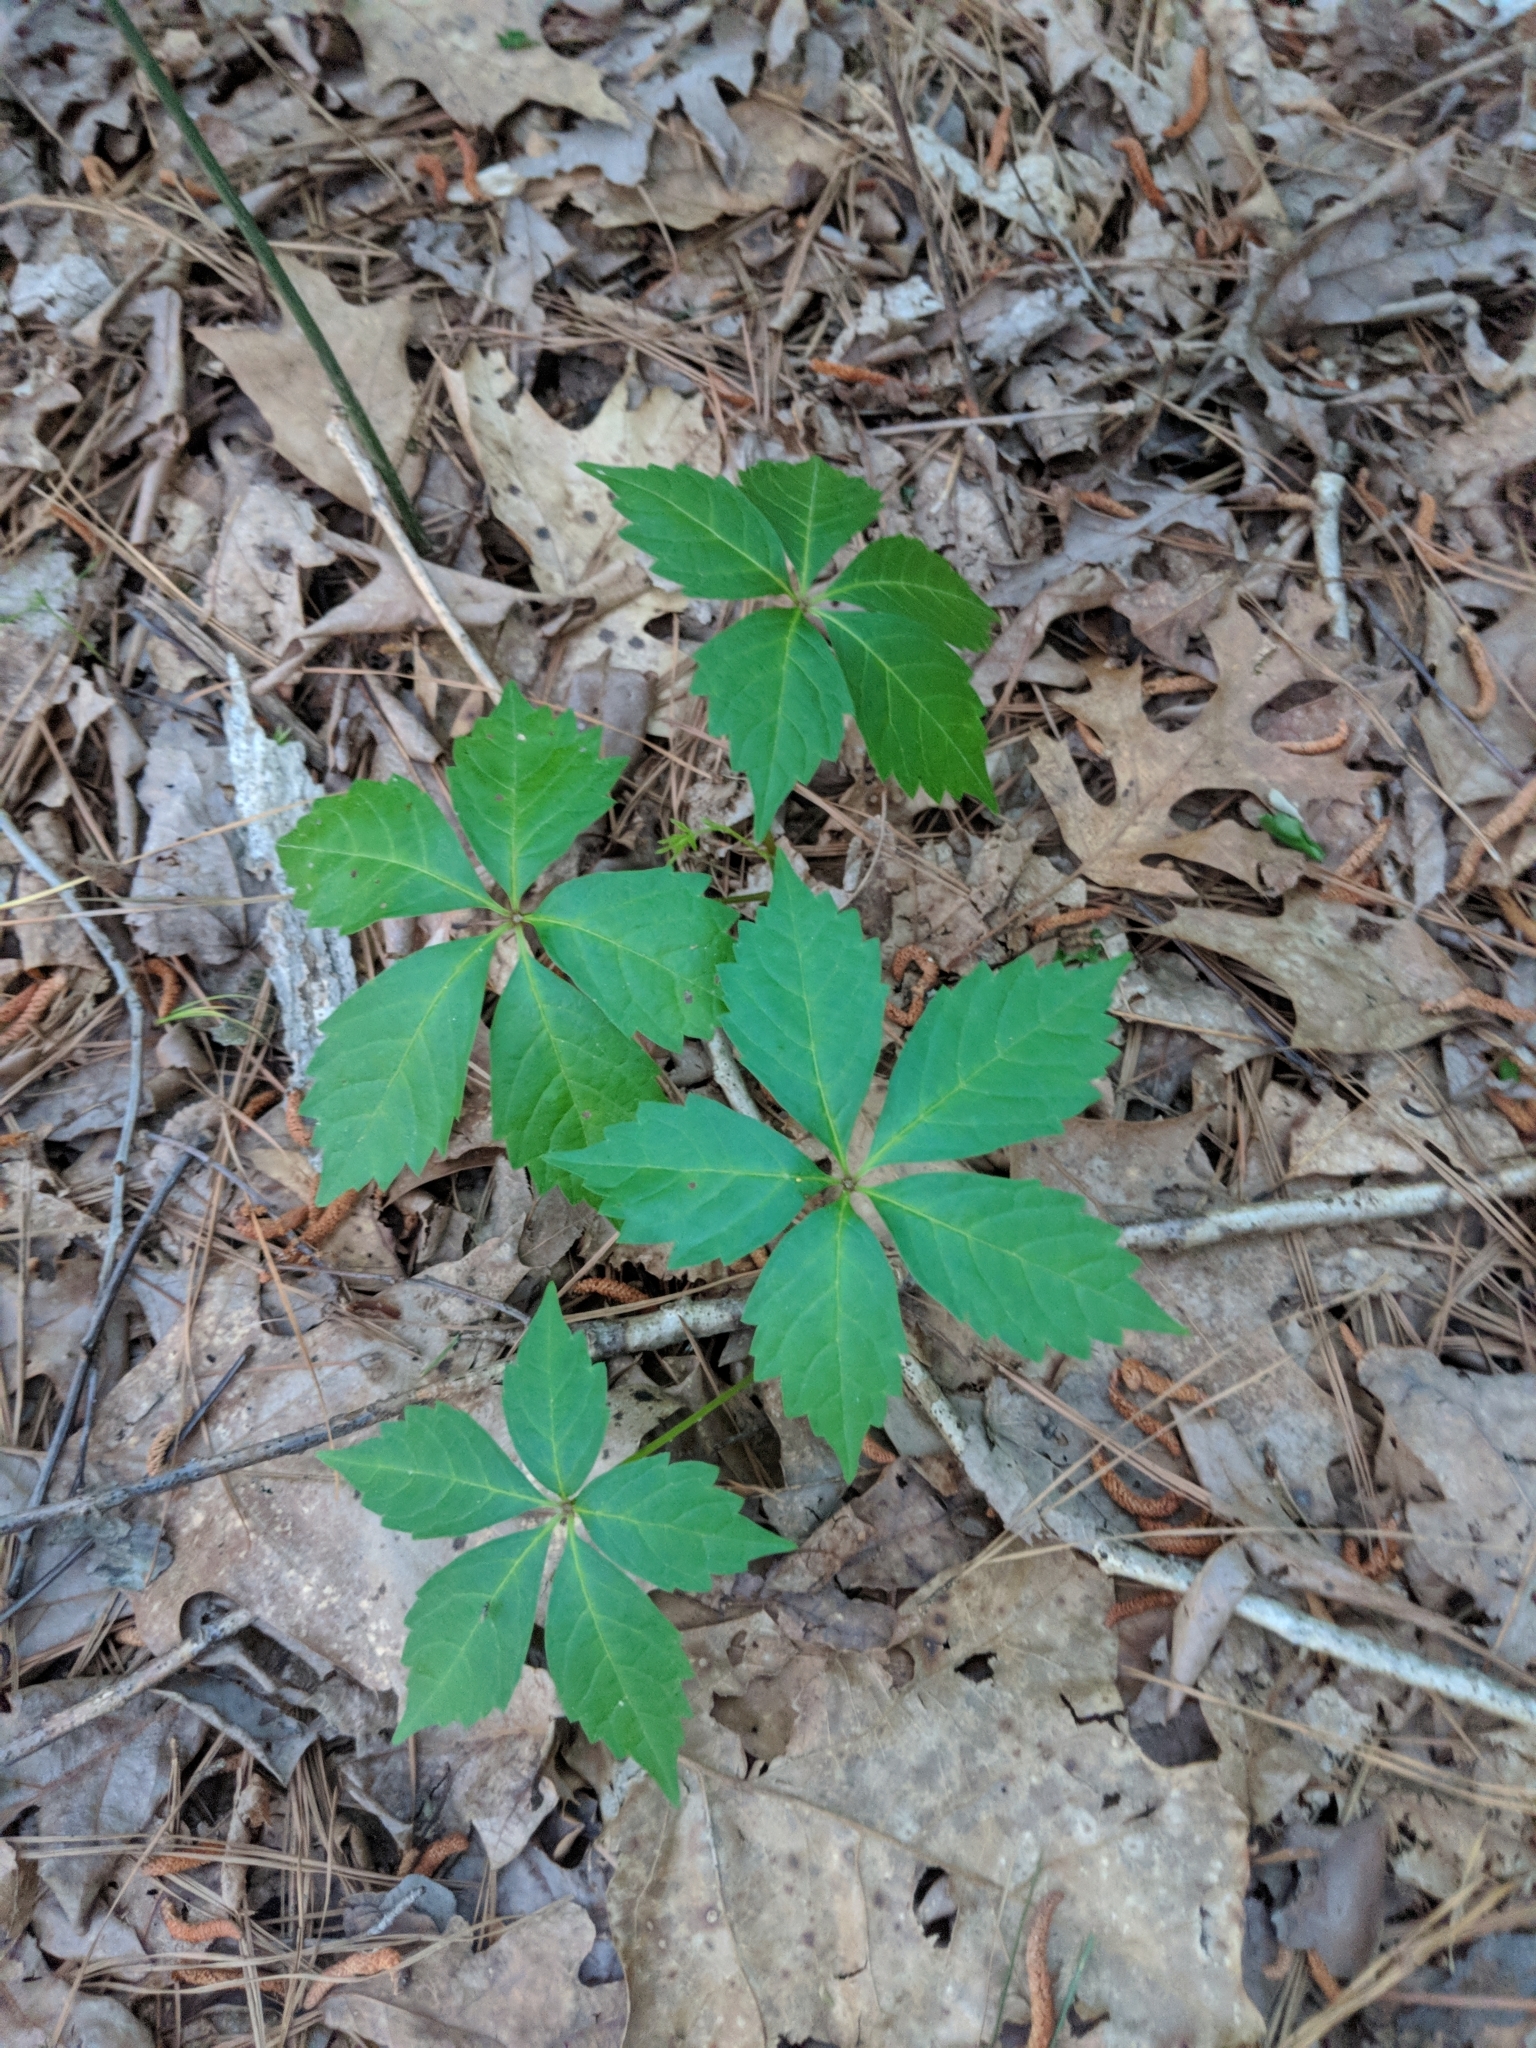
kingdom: Plantae
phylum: Tracheophyta
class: Magnoliopsida
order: Vitales
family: Vitaceae
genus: Parthenocissus
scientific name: Parthenocissus quinquefolia
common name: Virginia-creeper
